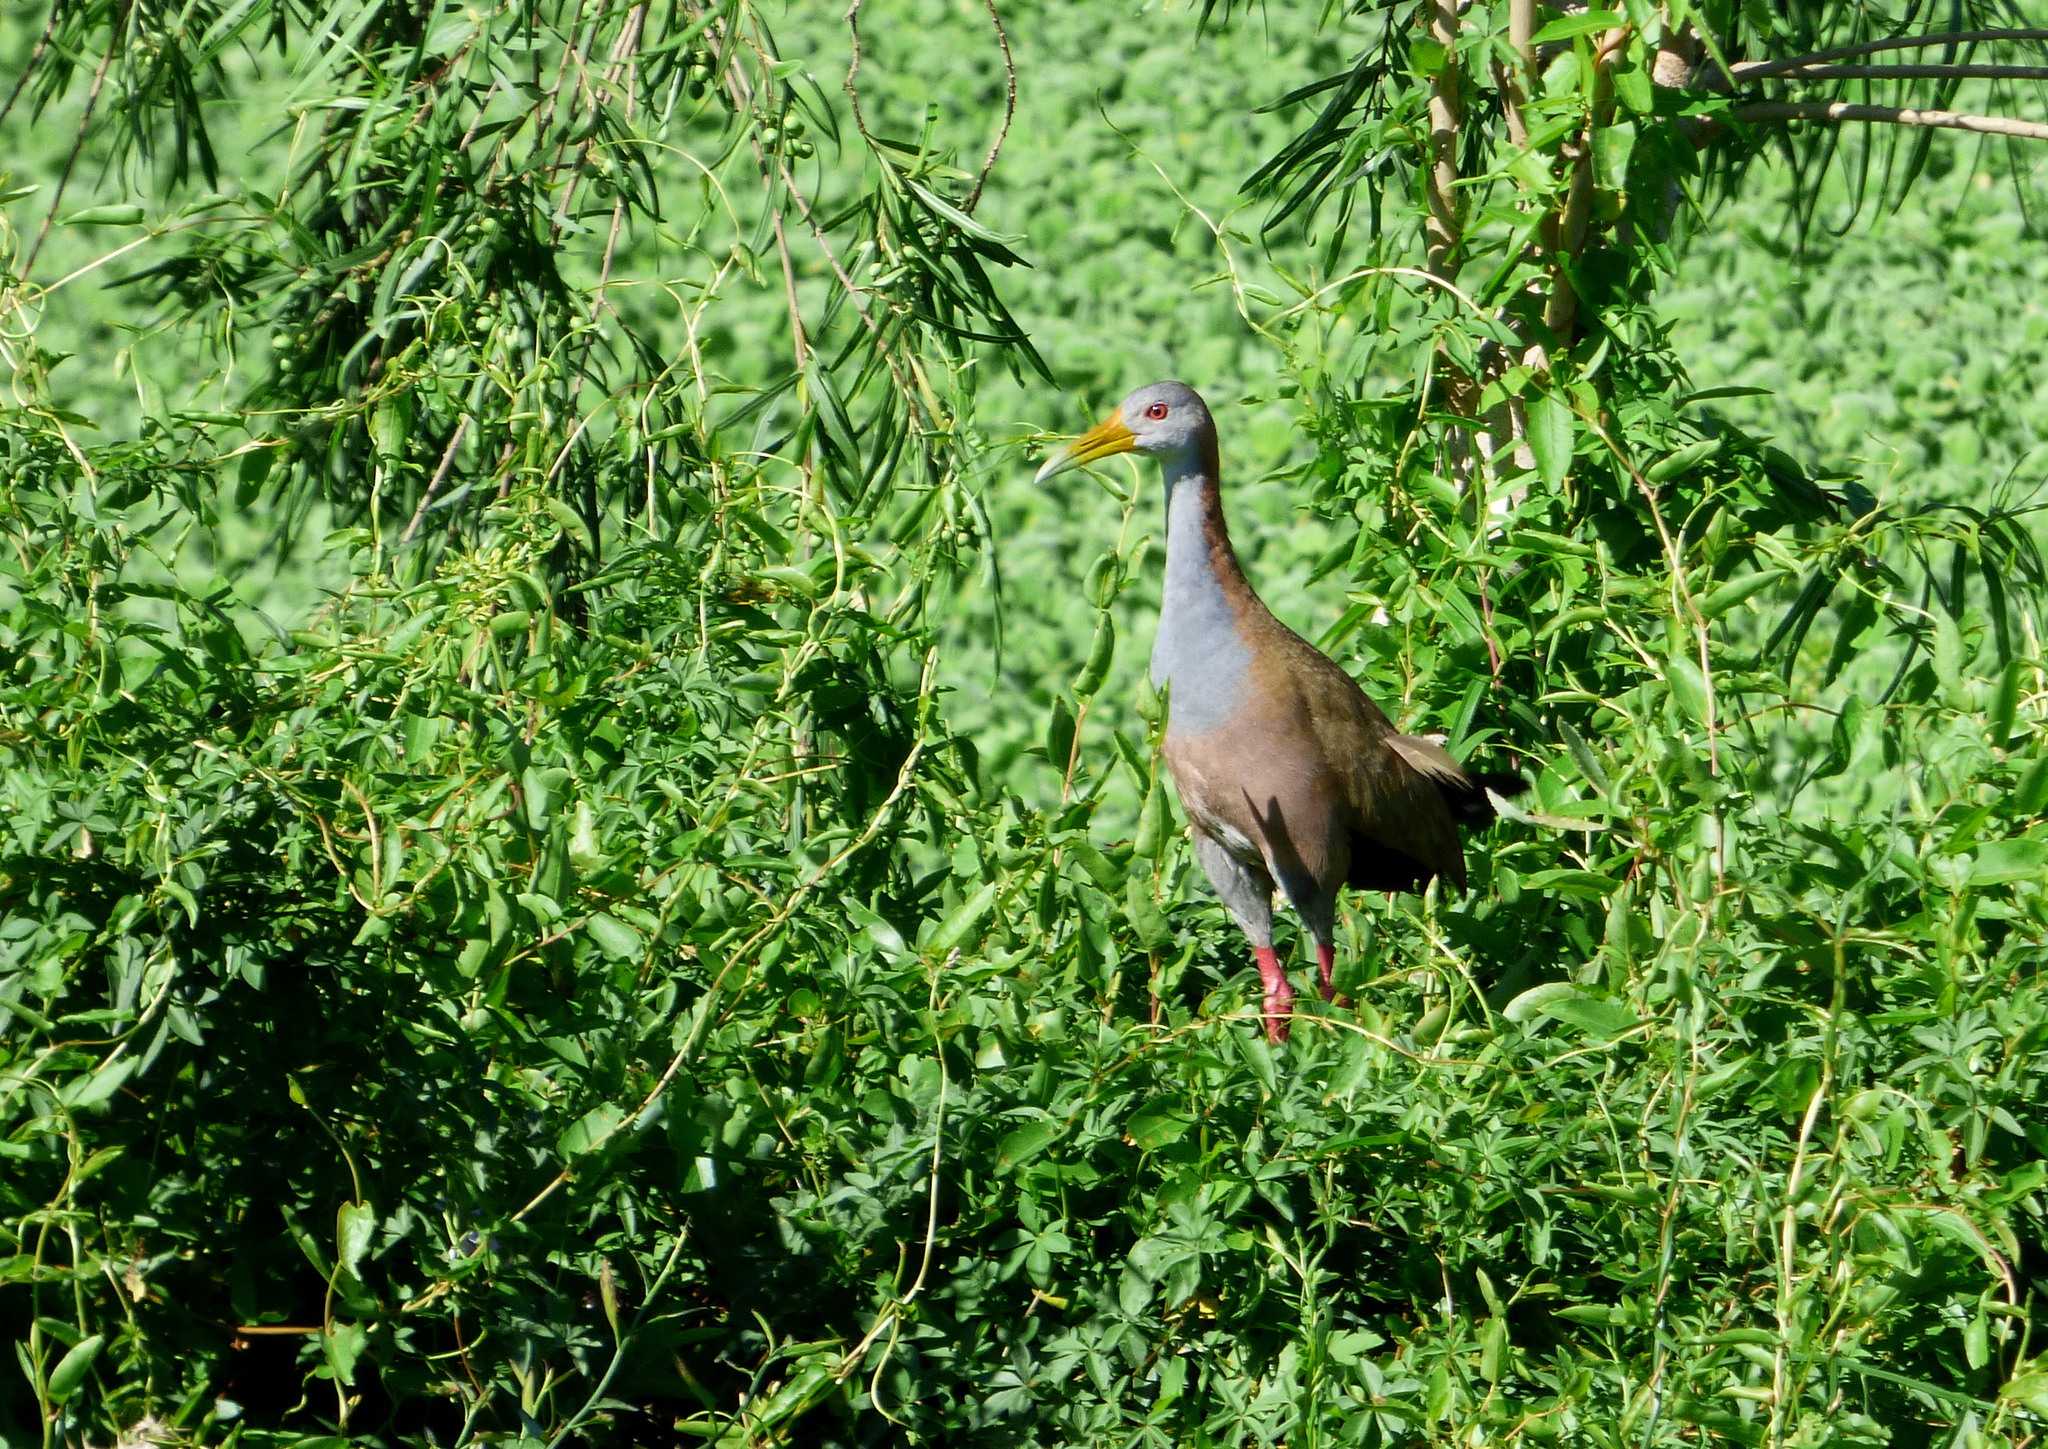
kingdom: Animalia
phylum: Chordata
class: Aves
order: Gruiformes
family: Rallidae
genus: Aramides
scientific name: Aramides ypecaha
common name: Giant wood rail
